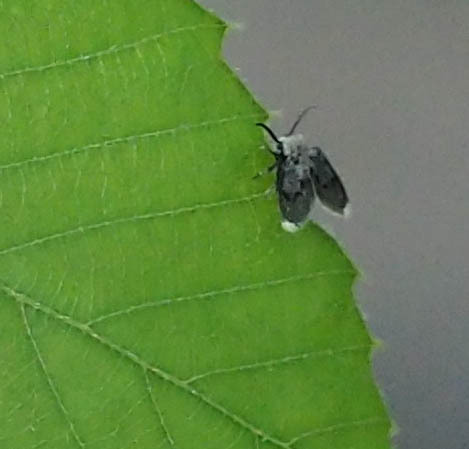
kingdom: Animalia
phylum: Arthropoda
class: Insecta
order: Diptera
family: Psychodidae
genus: Lepiseodina
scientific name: Lepiseodina
